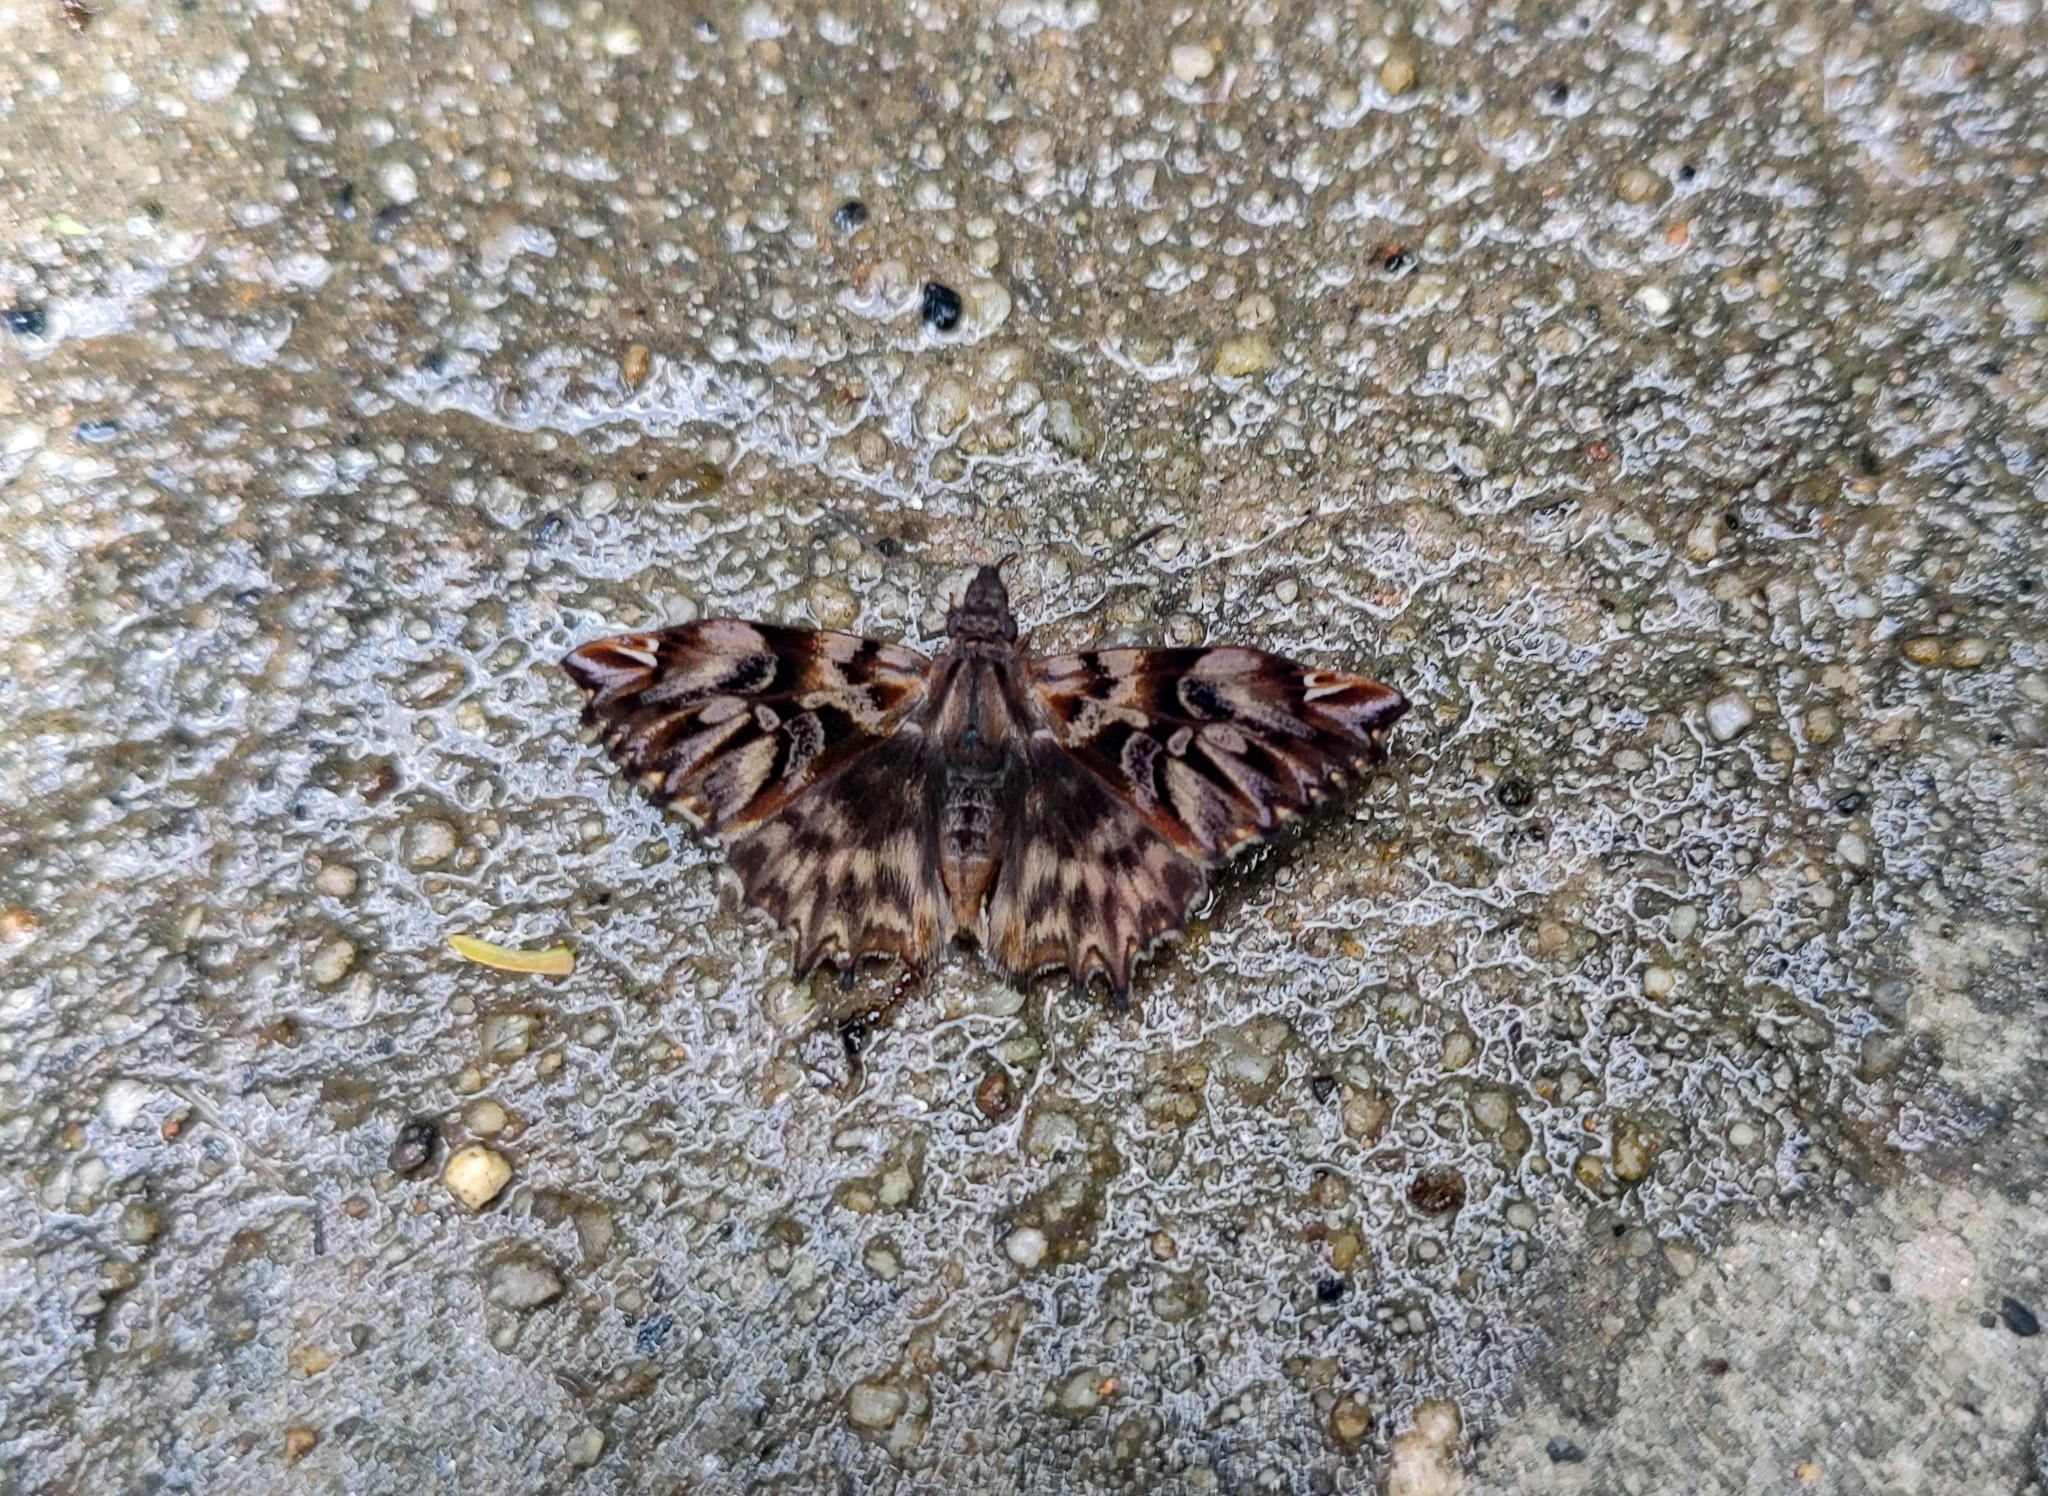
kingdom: Animalia
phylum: Arthropoda
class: Insecta
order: Lepidoptera
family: Hesperiidae
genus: Noctuana
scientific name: Noctuana diurna
